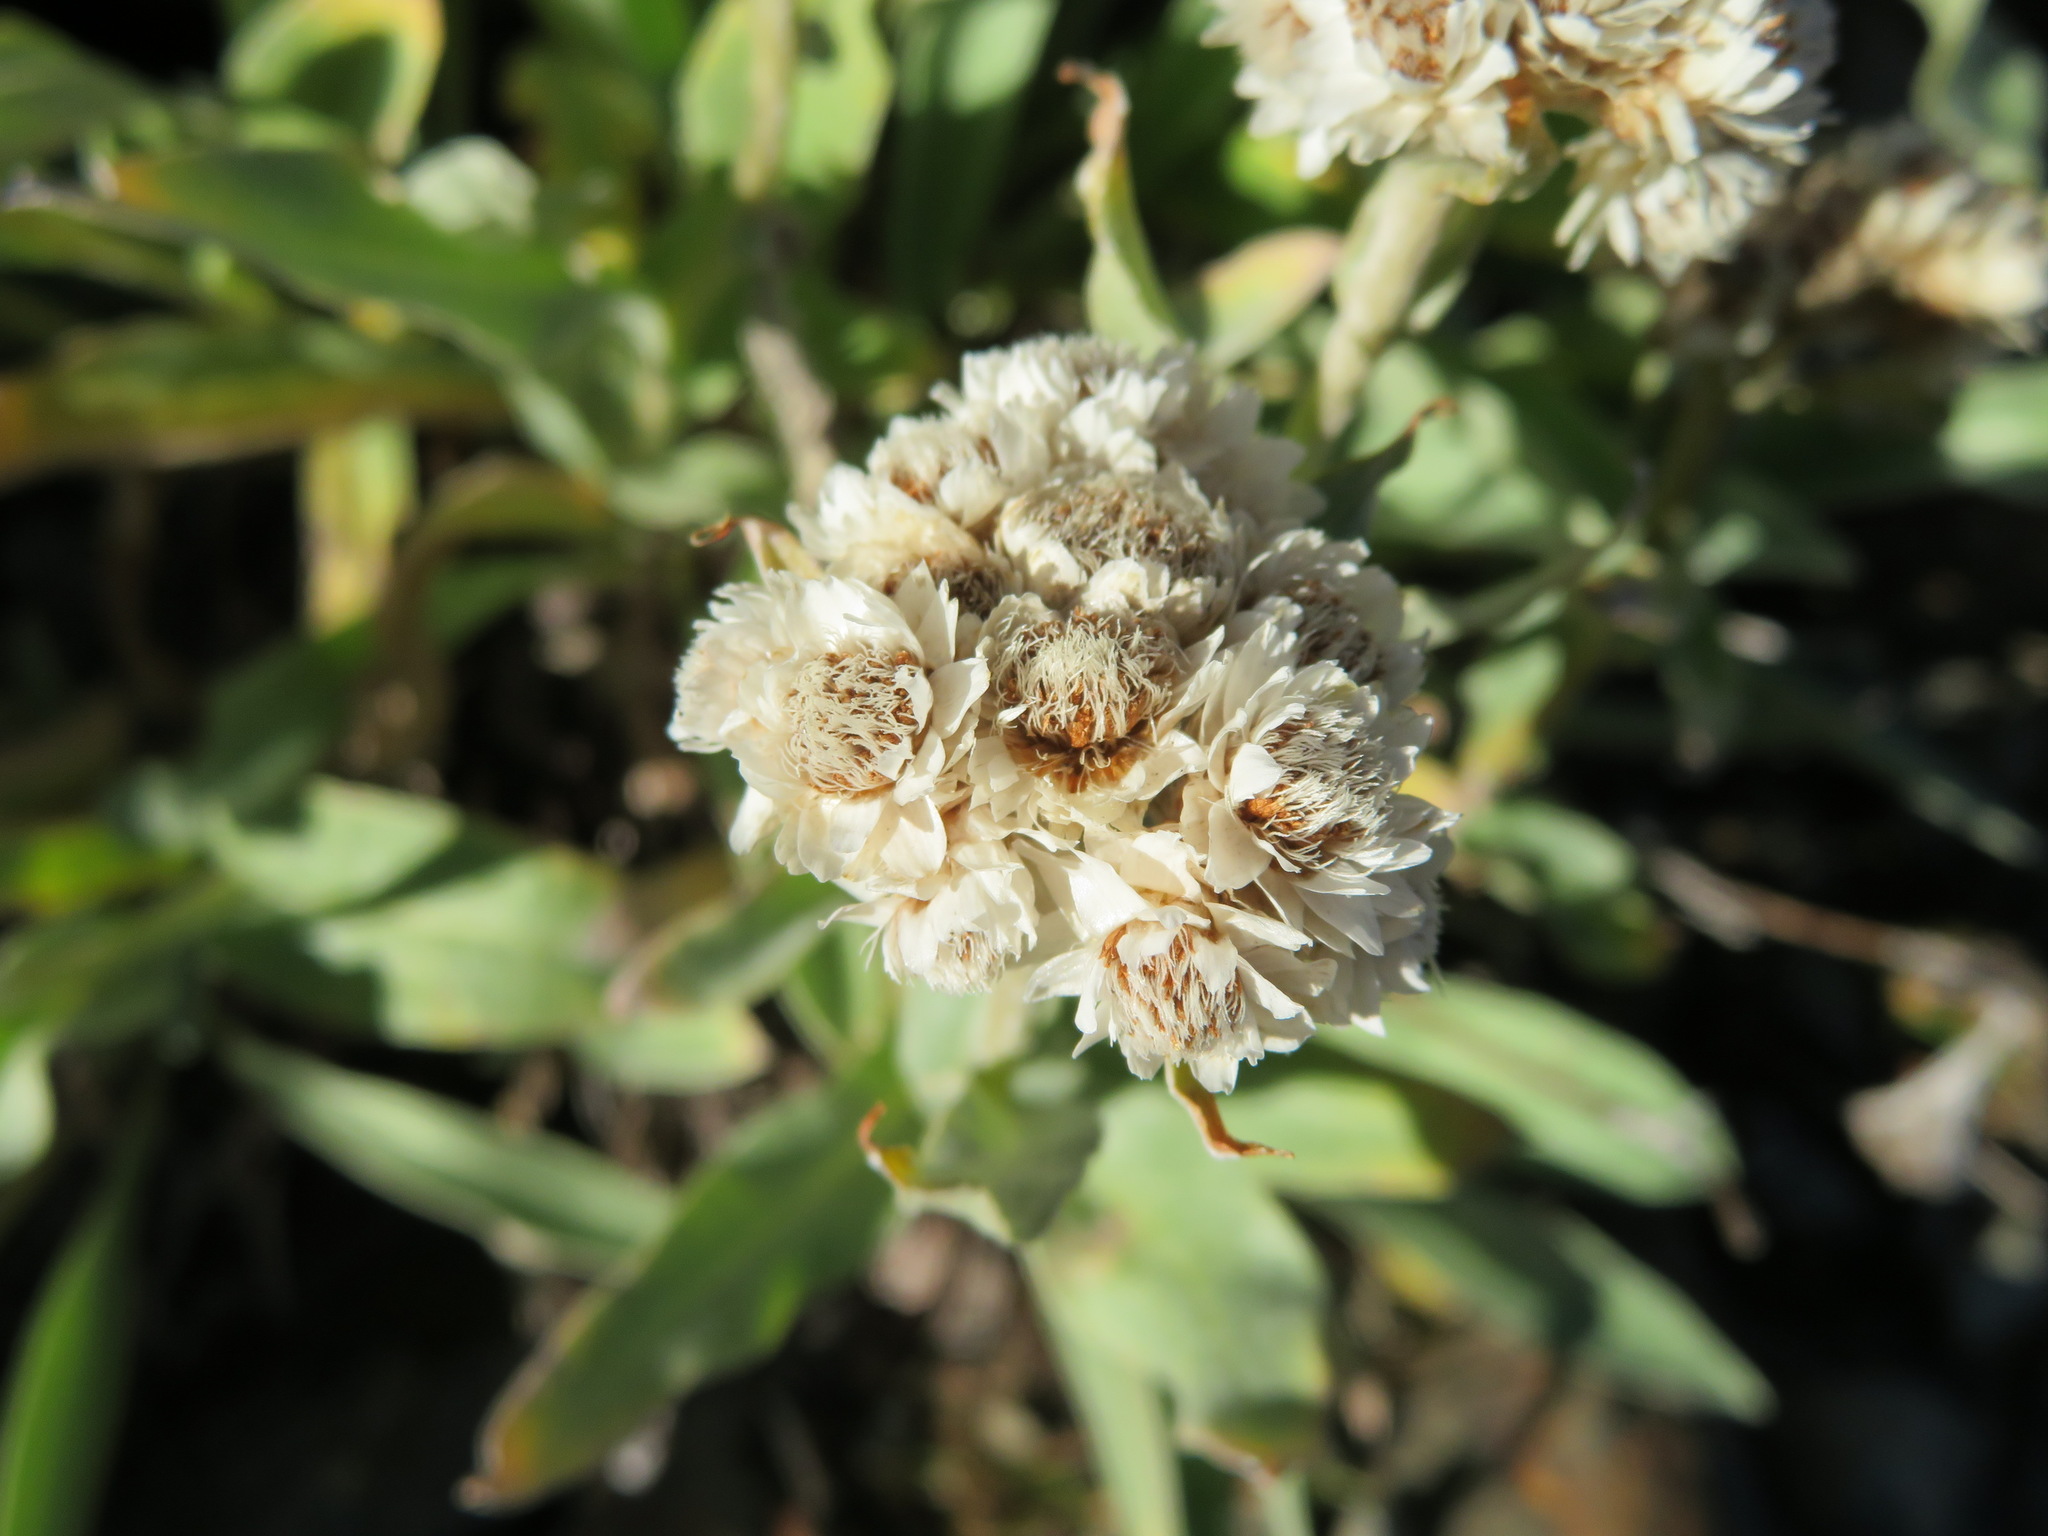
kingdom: Plantae
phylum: Tracheophyta
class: Magnoliopsida
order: Asterales
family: Asteraceae
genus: Anaphalis
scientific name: Anaphalis alpicola
